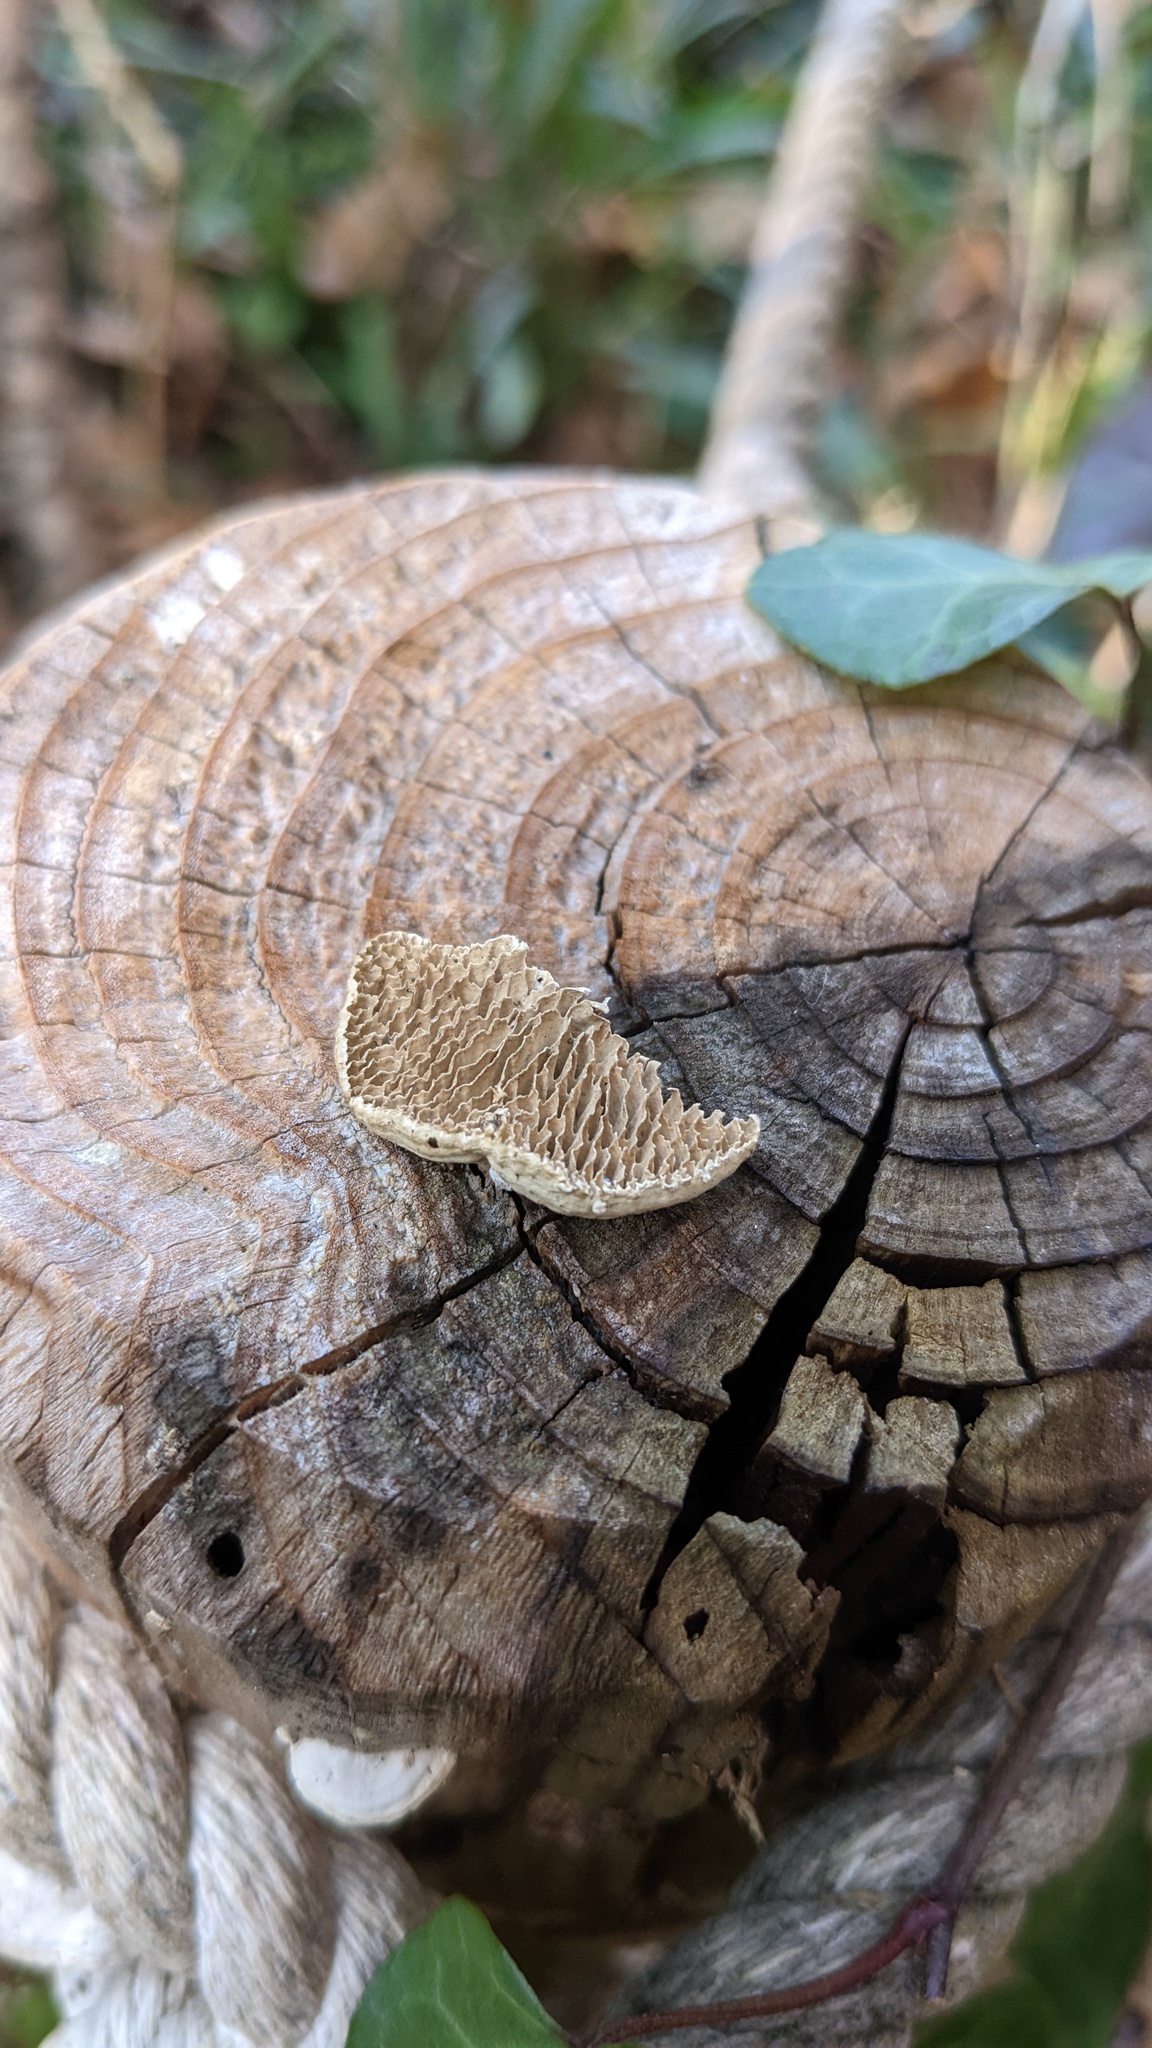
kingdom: Fungi
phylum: Basidiomycota
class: Agaricomycetes
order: Polyporales
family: Fomitopsidaceae
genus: Antrodia
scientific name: Antrodia heteromorpha
